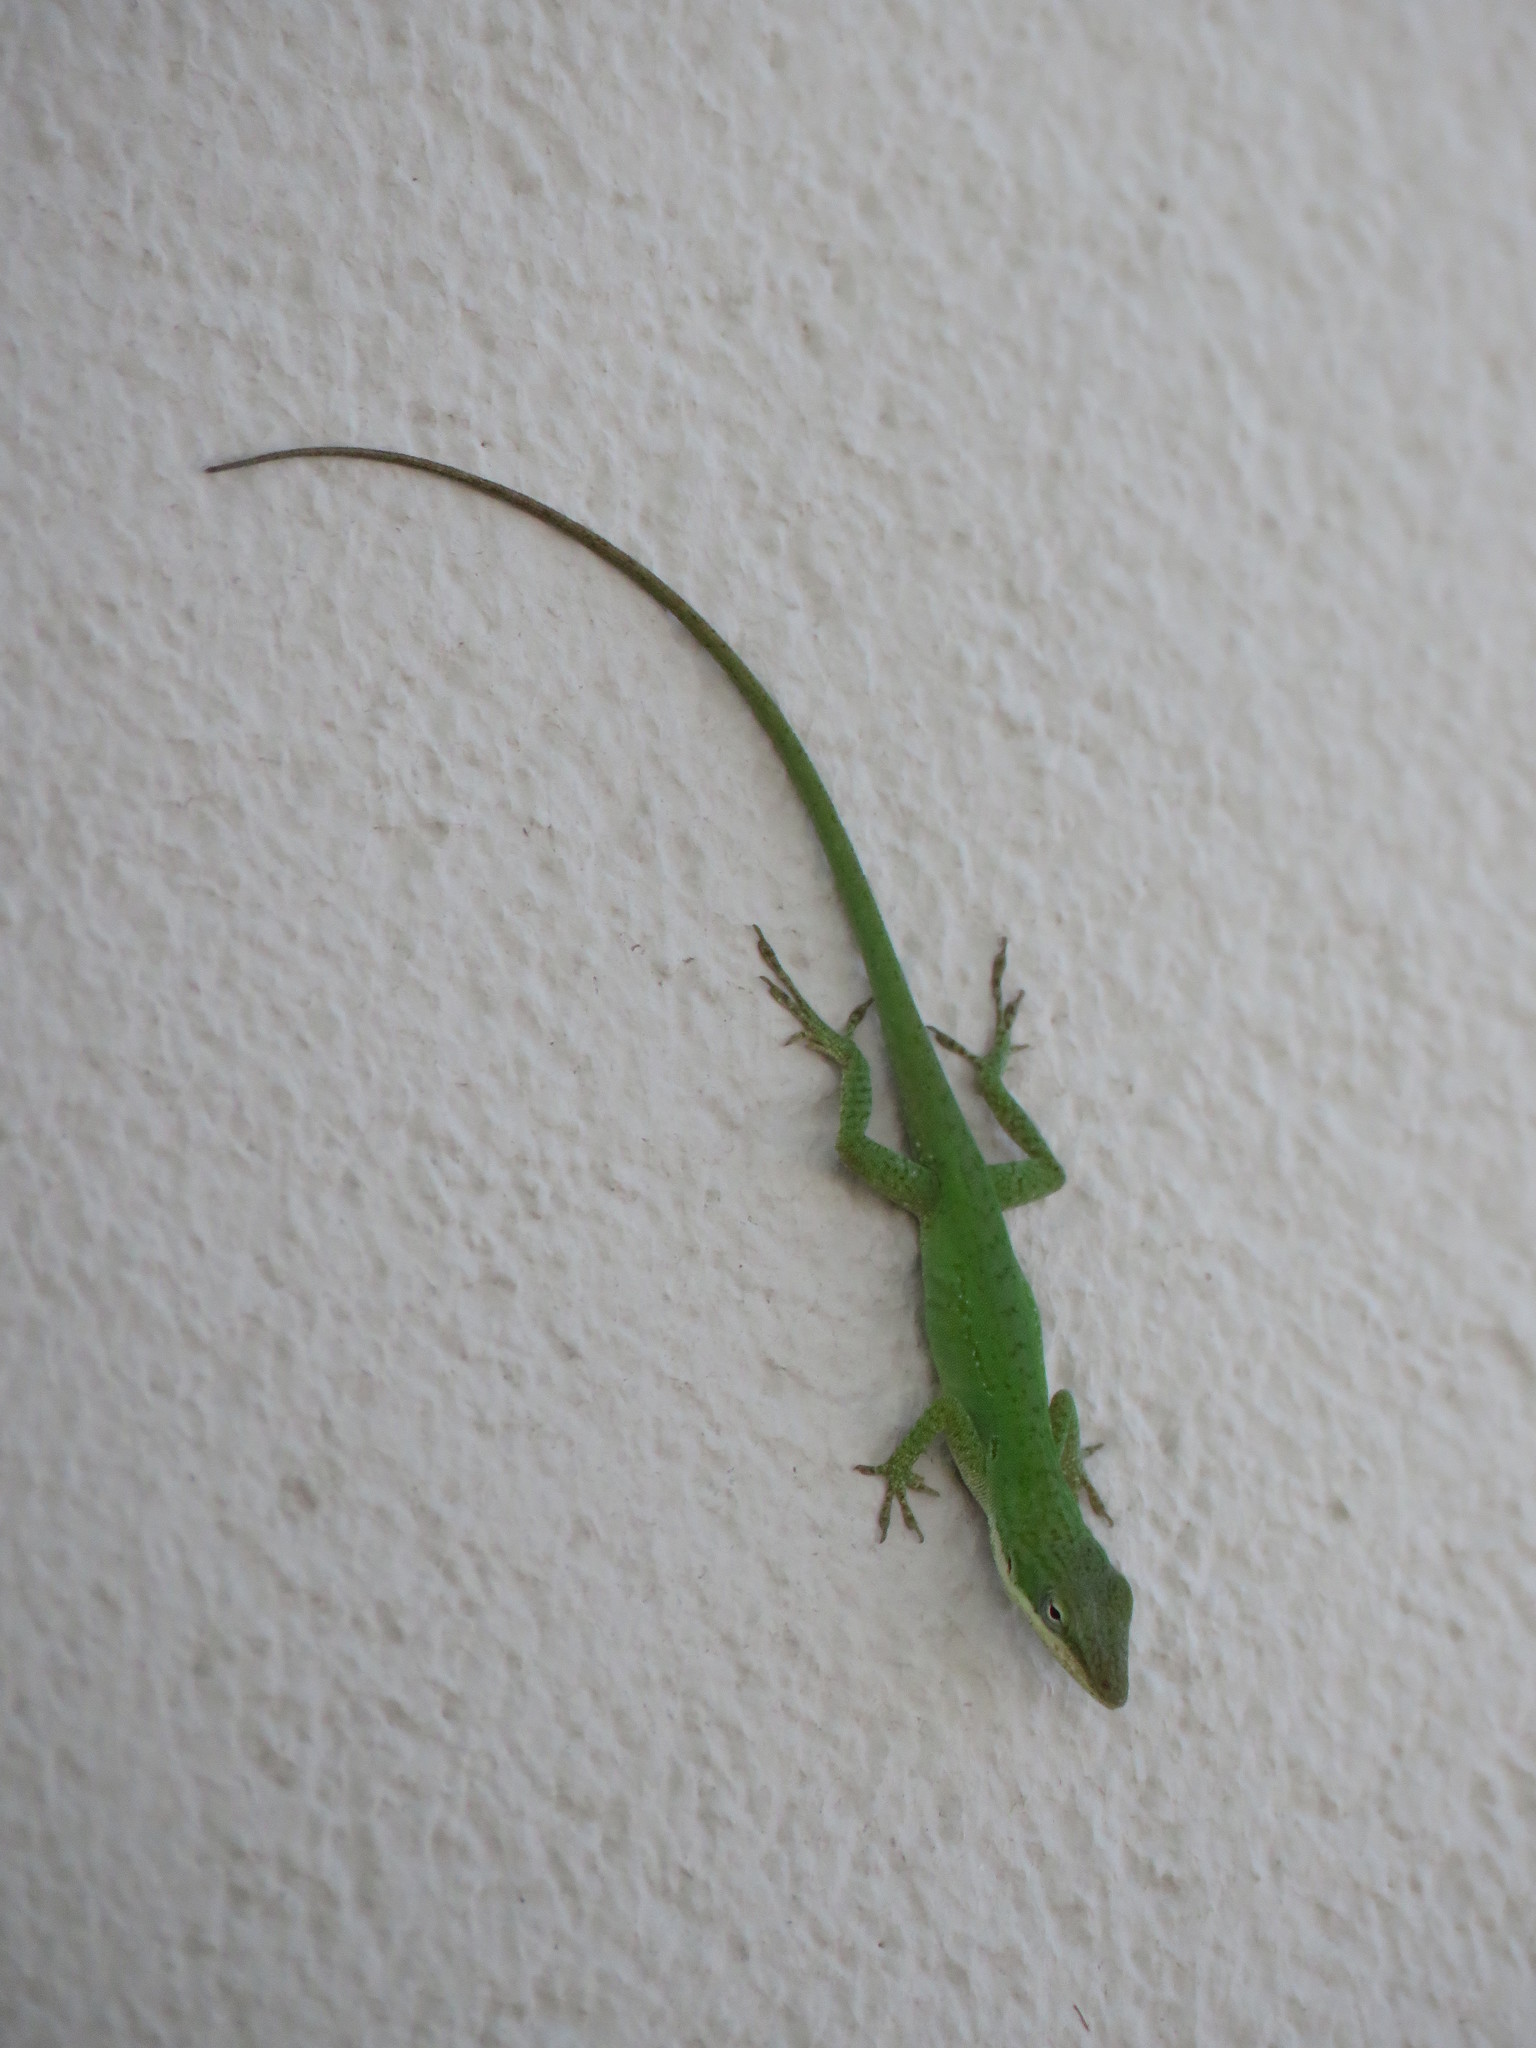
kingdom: Animalia
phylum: Chordata
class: Squamata
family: Dactyloidae
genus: Anolis
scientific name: Anolis carolinensis
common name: Green anole
